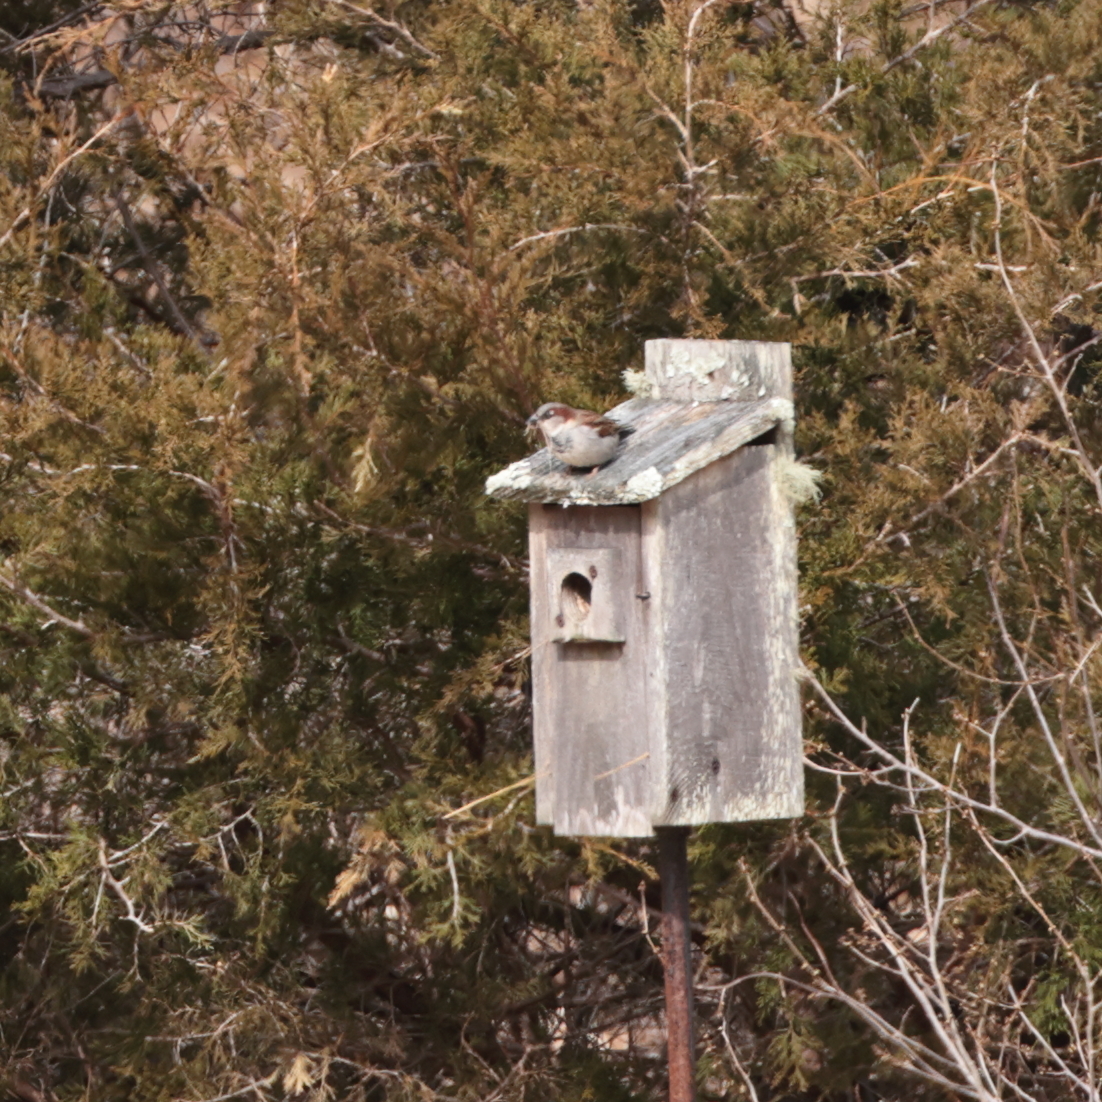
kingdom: Animalia
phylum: Chordata
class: Aves
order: Passeriformes
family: Passeridae
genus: Passer
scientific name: Passer domesticus
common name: House sparrow
